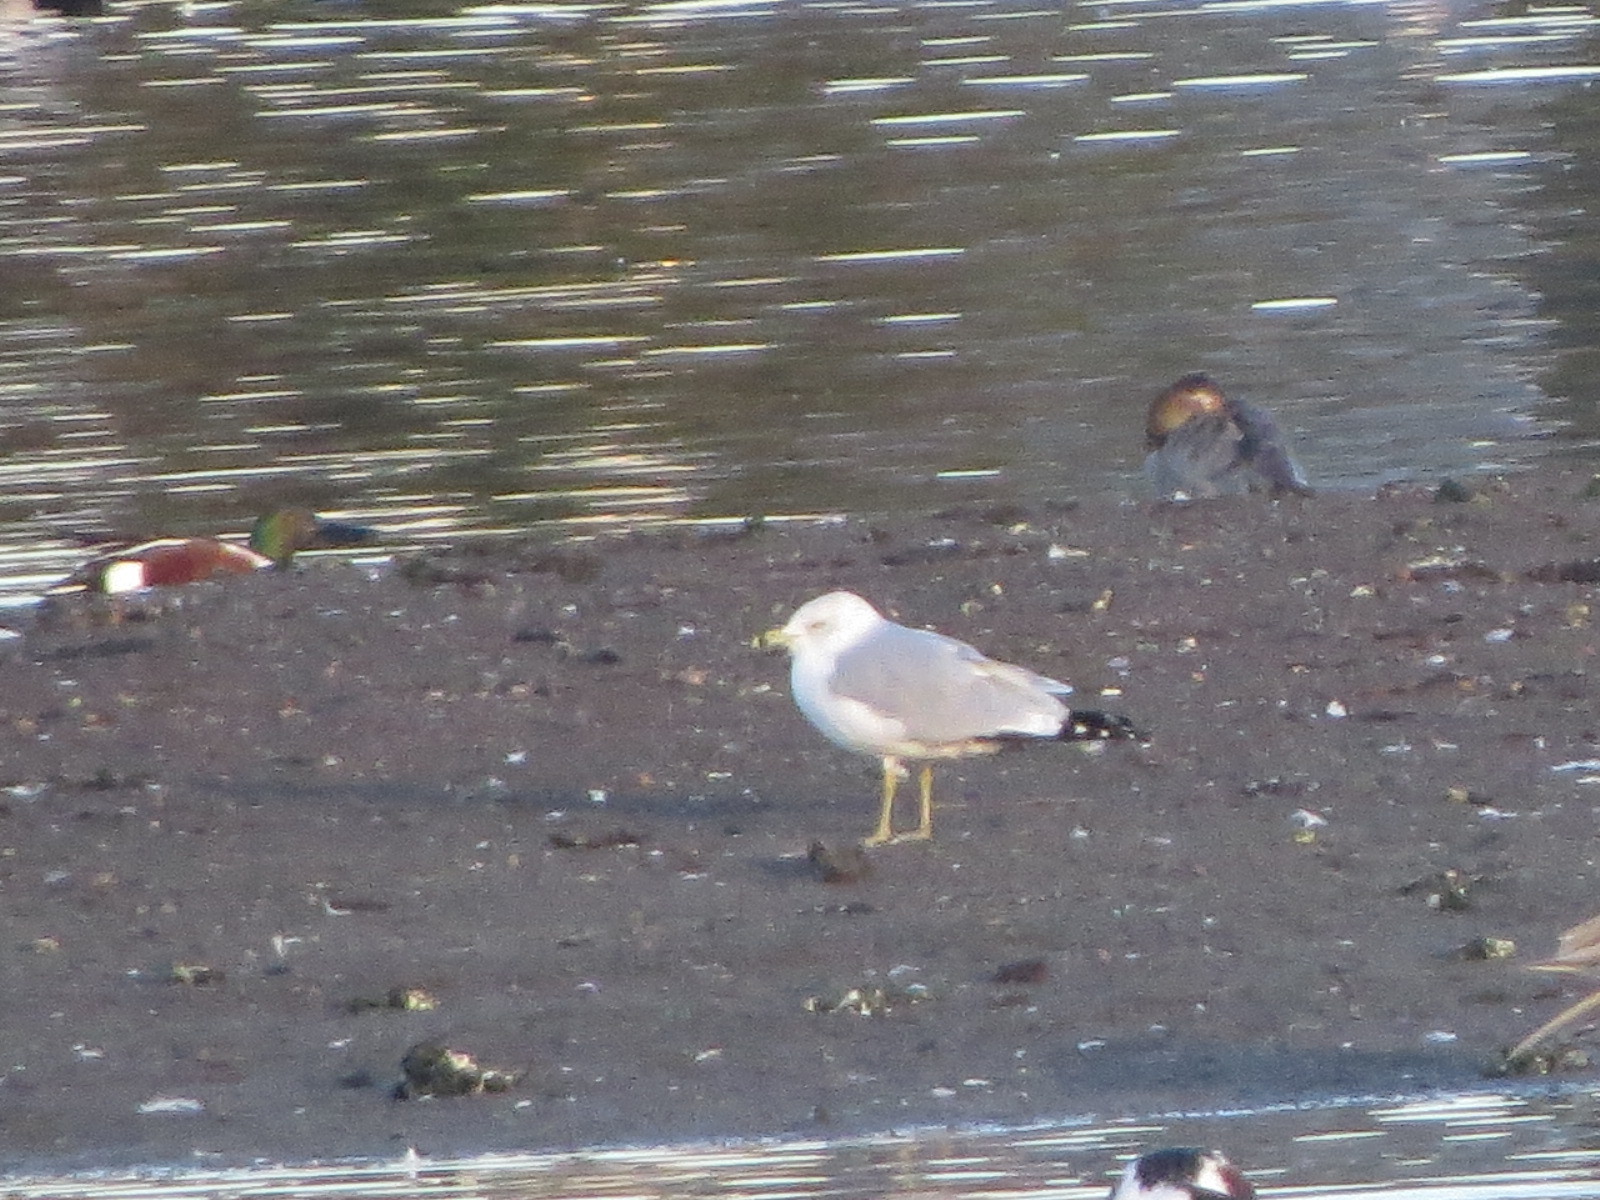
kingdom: Animalia
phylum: Chordata
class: Aves
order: Charadriiformes
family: Laridae
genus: Larus
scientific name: Larus delawarensis
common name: Ring-billed gull
